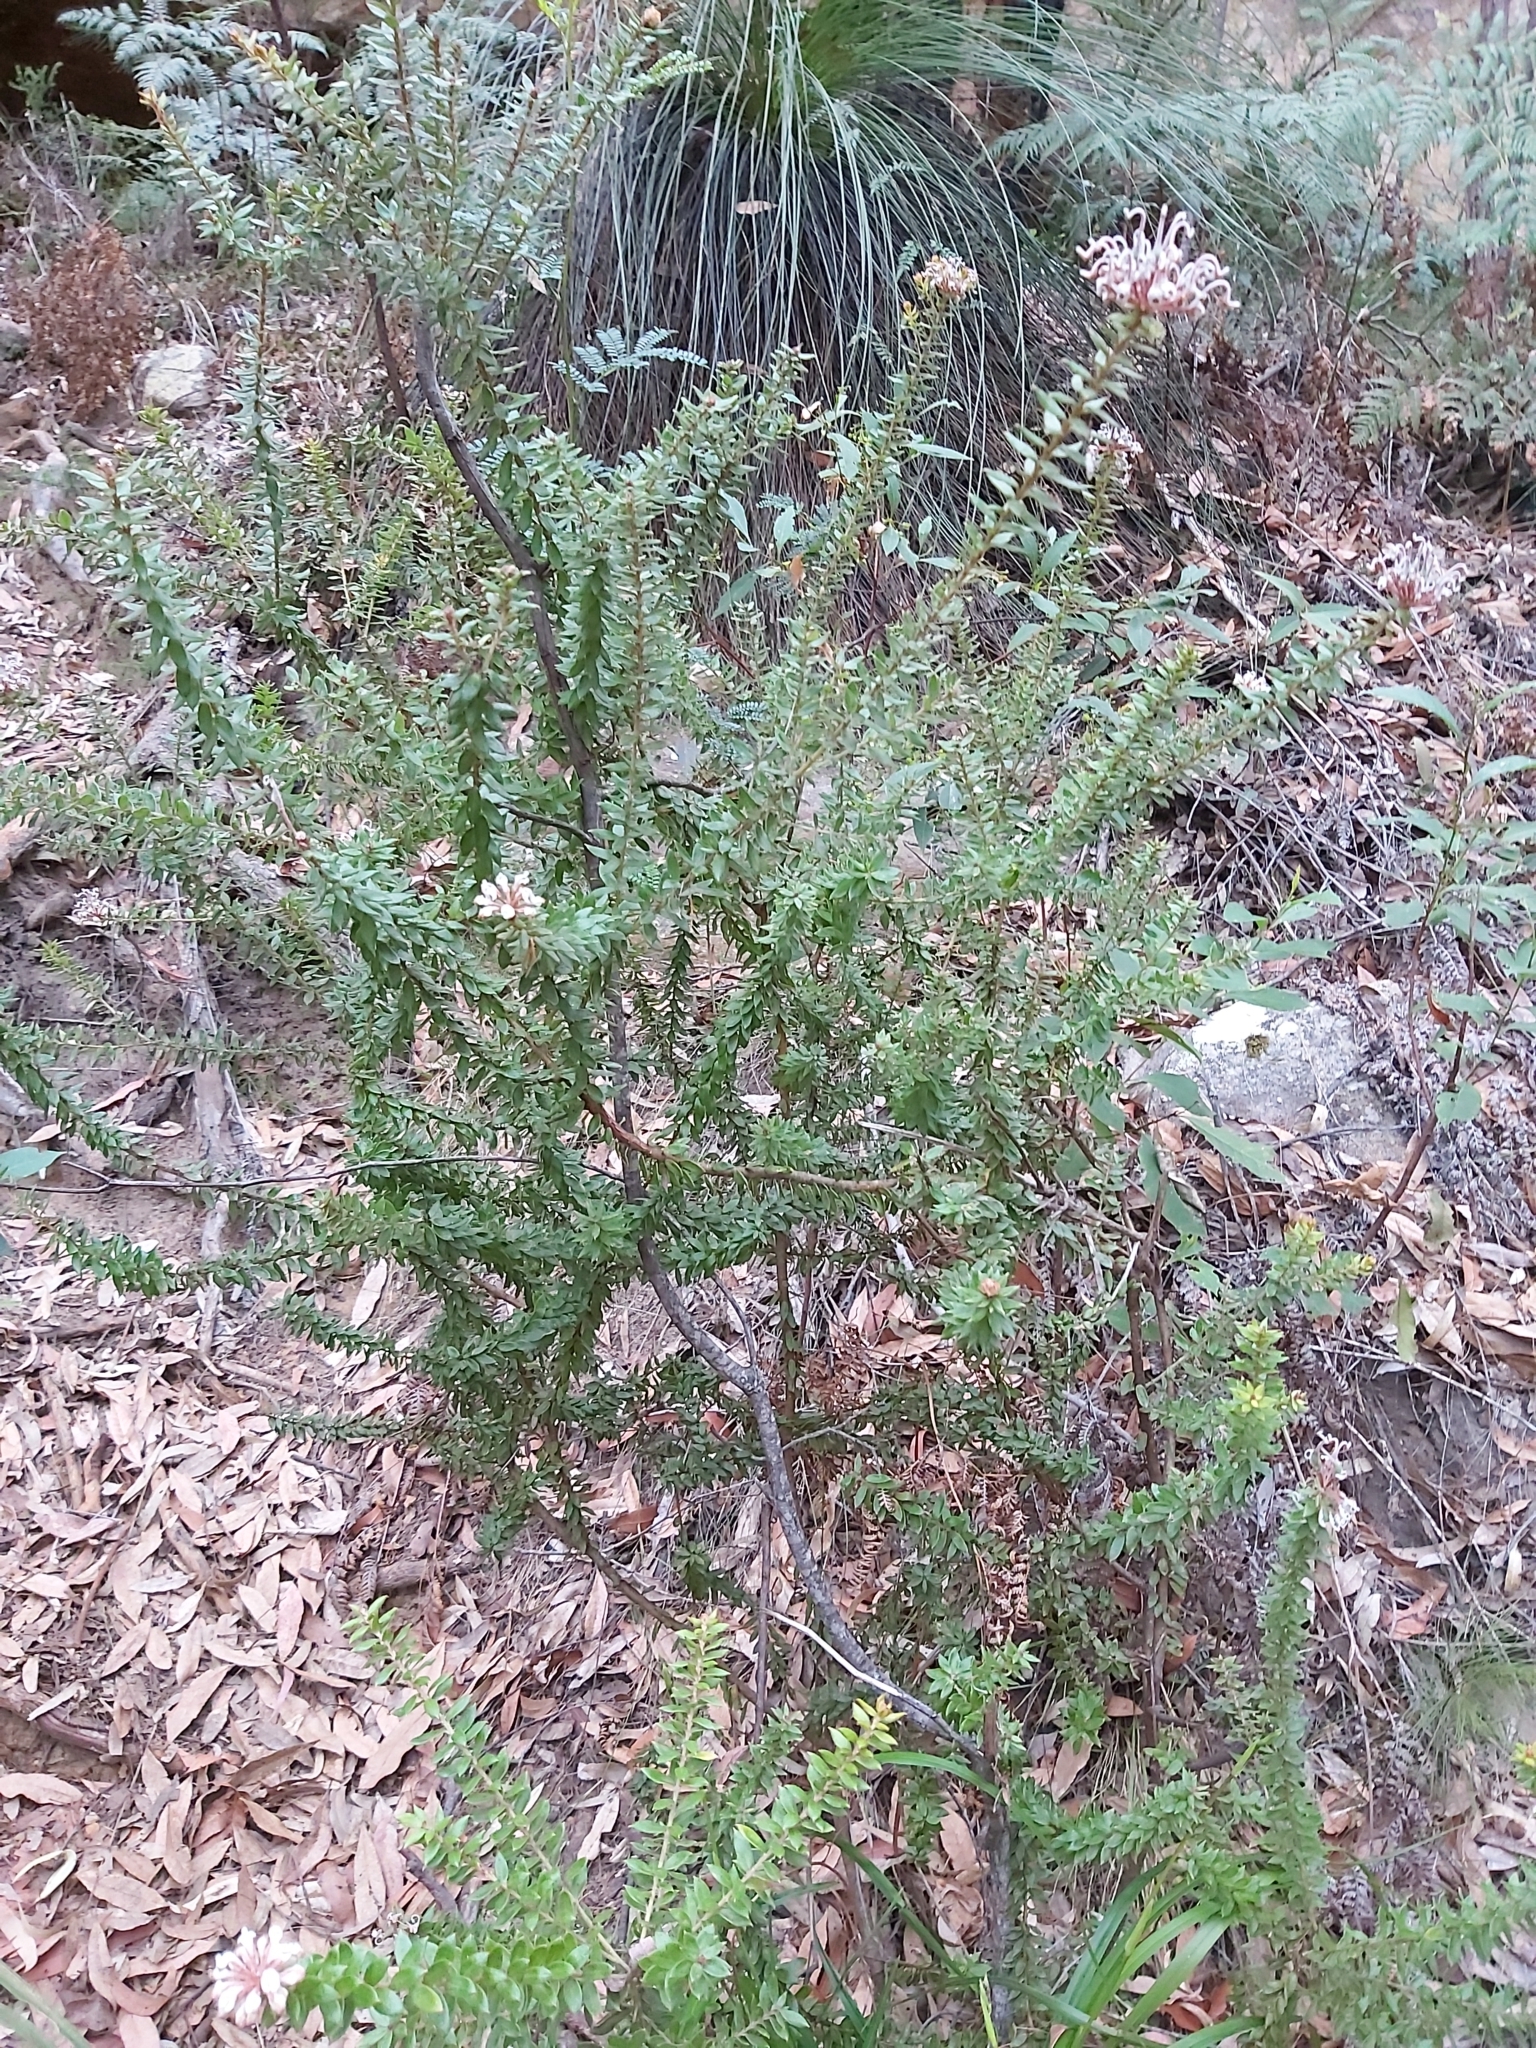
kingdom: Plantae
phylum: Tracheophyta
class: Magnoliopsida
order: Proteales
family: Proteaceae
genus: Grevillea
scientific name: Grevillea buxifolia
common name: Grey spiderflower
